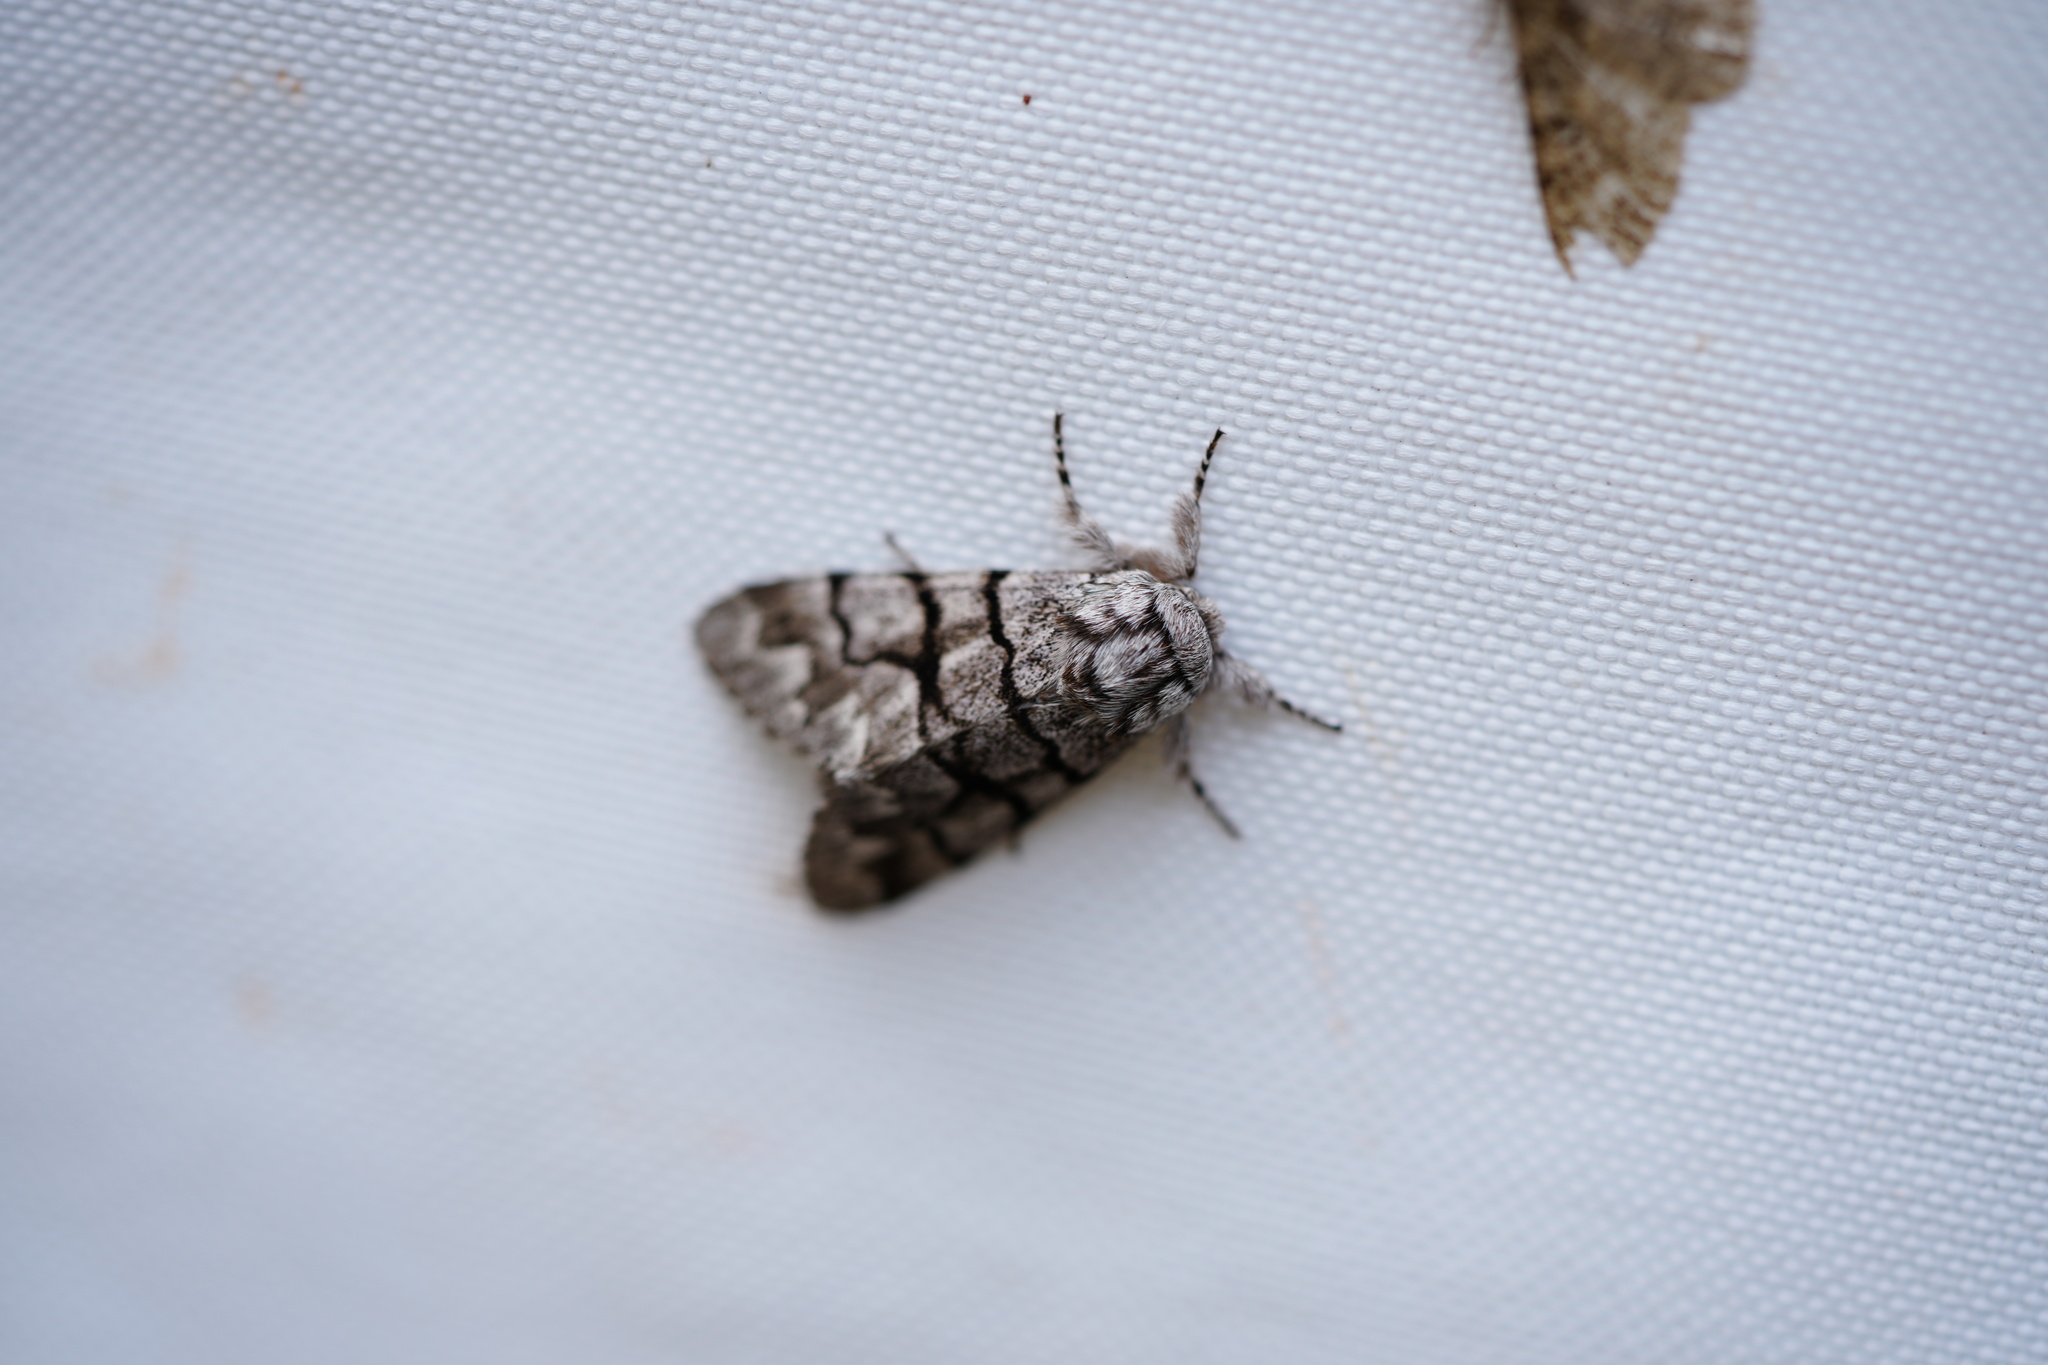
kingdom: Animalia
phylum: Arthropoda
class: Insecta
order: Lepidoptera
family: Noctuidae
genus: Panthea
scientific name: Panthea furcilla
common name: Eastern panthea moth
